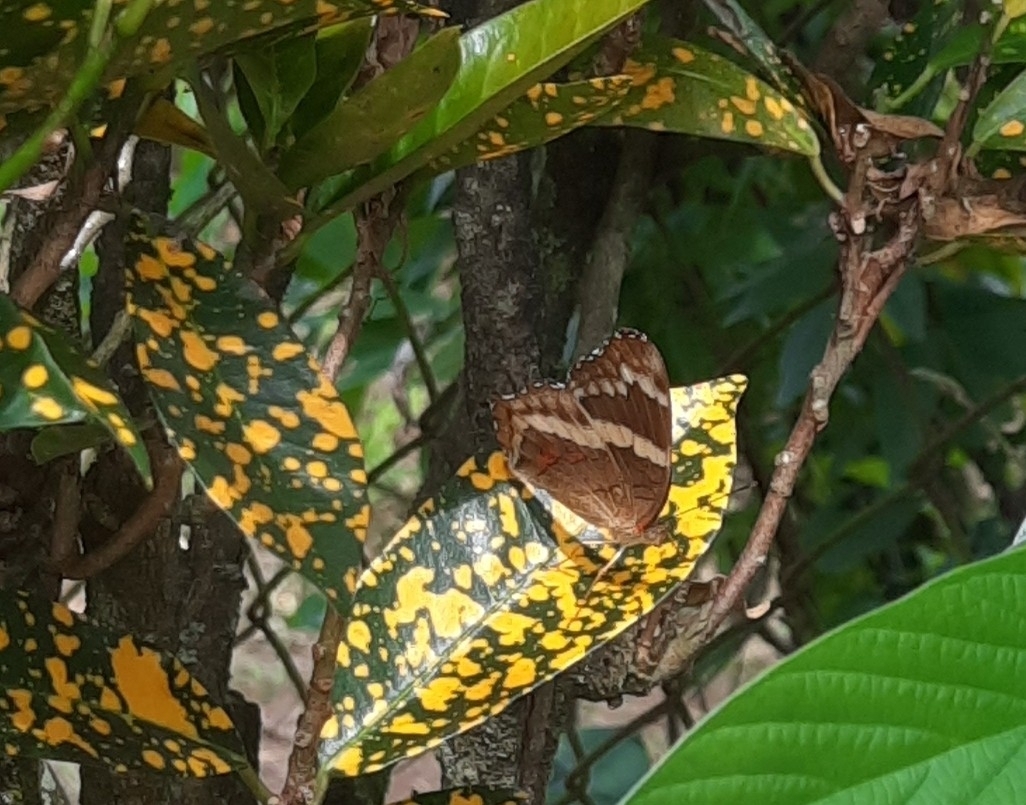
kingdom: Animalia
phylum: Arthropoda
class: Insecta
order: Lepidoptera
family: Nymphalidae
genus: Anartia
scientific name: Anartia fatima
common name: Banded peacock
